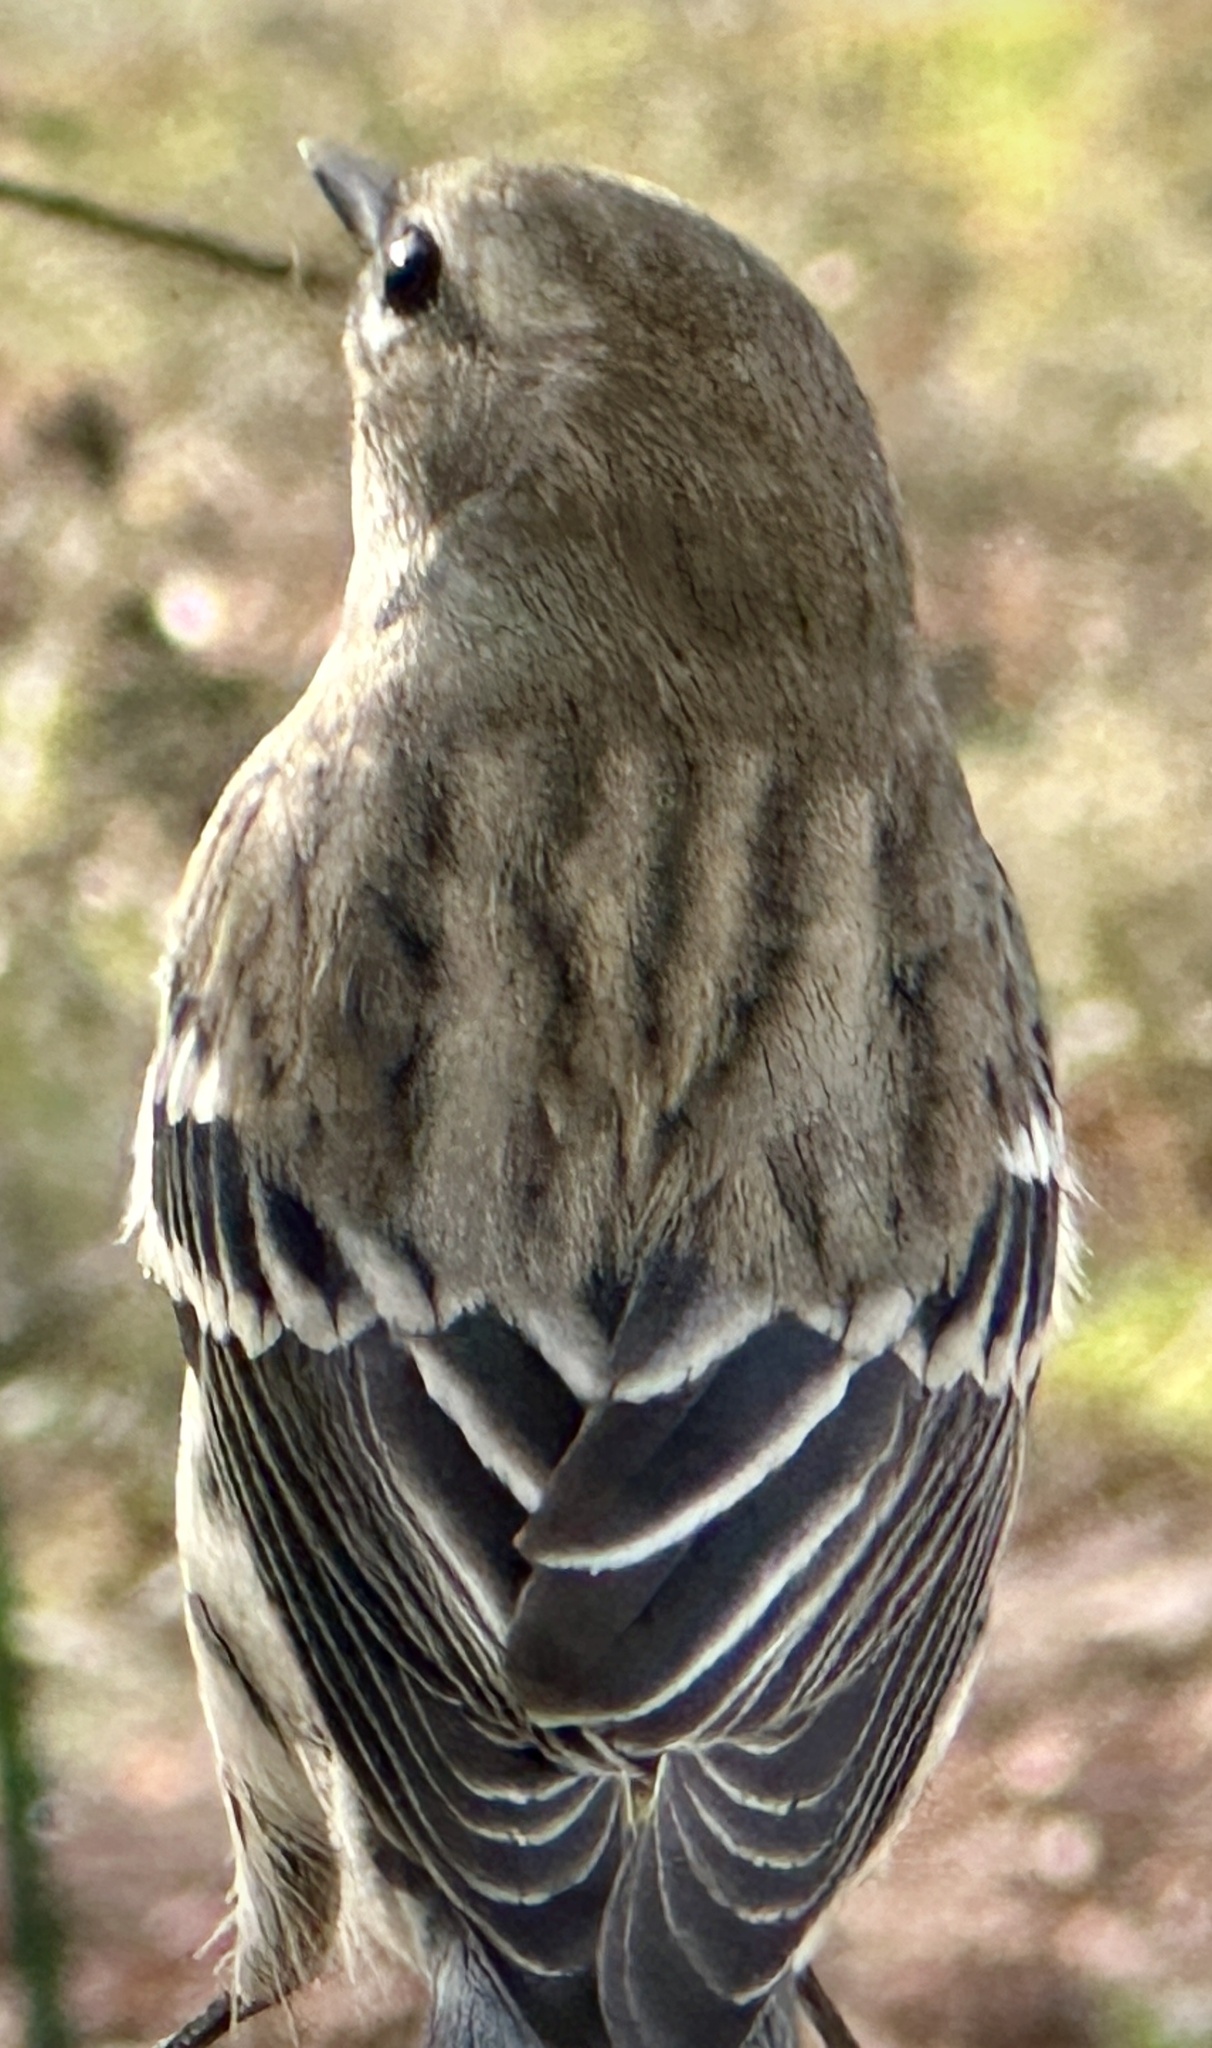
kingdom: Animalia
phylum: Chordata
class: Aves
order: Passeriformes
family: Parulidae
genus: Setophaga
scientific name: Setophaga coronata
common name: Myrtle warbler
